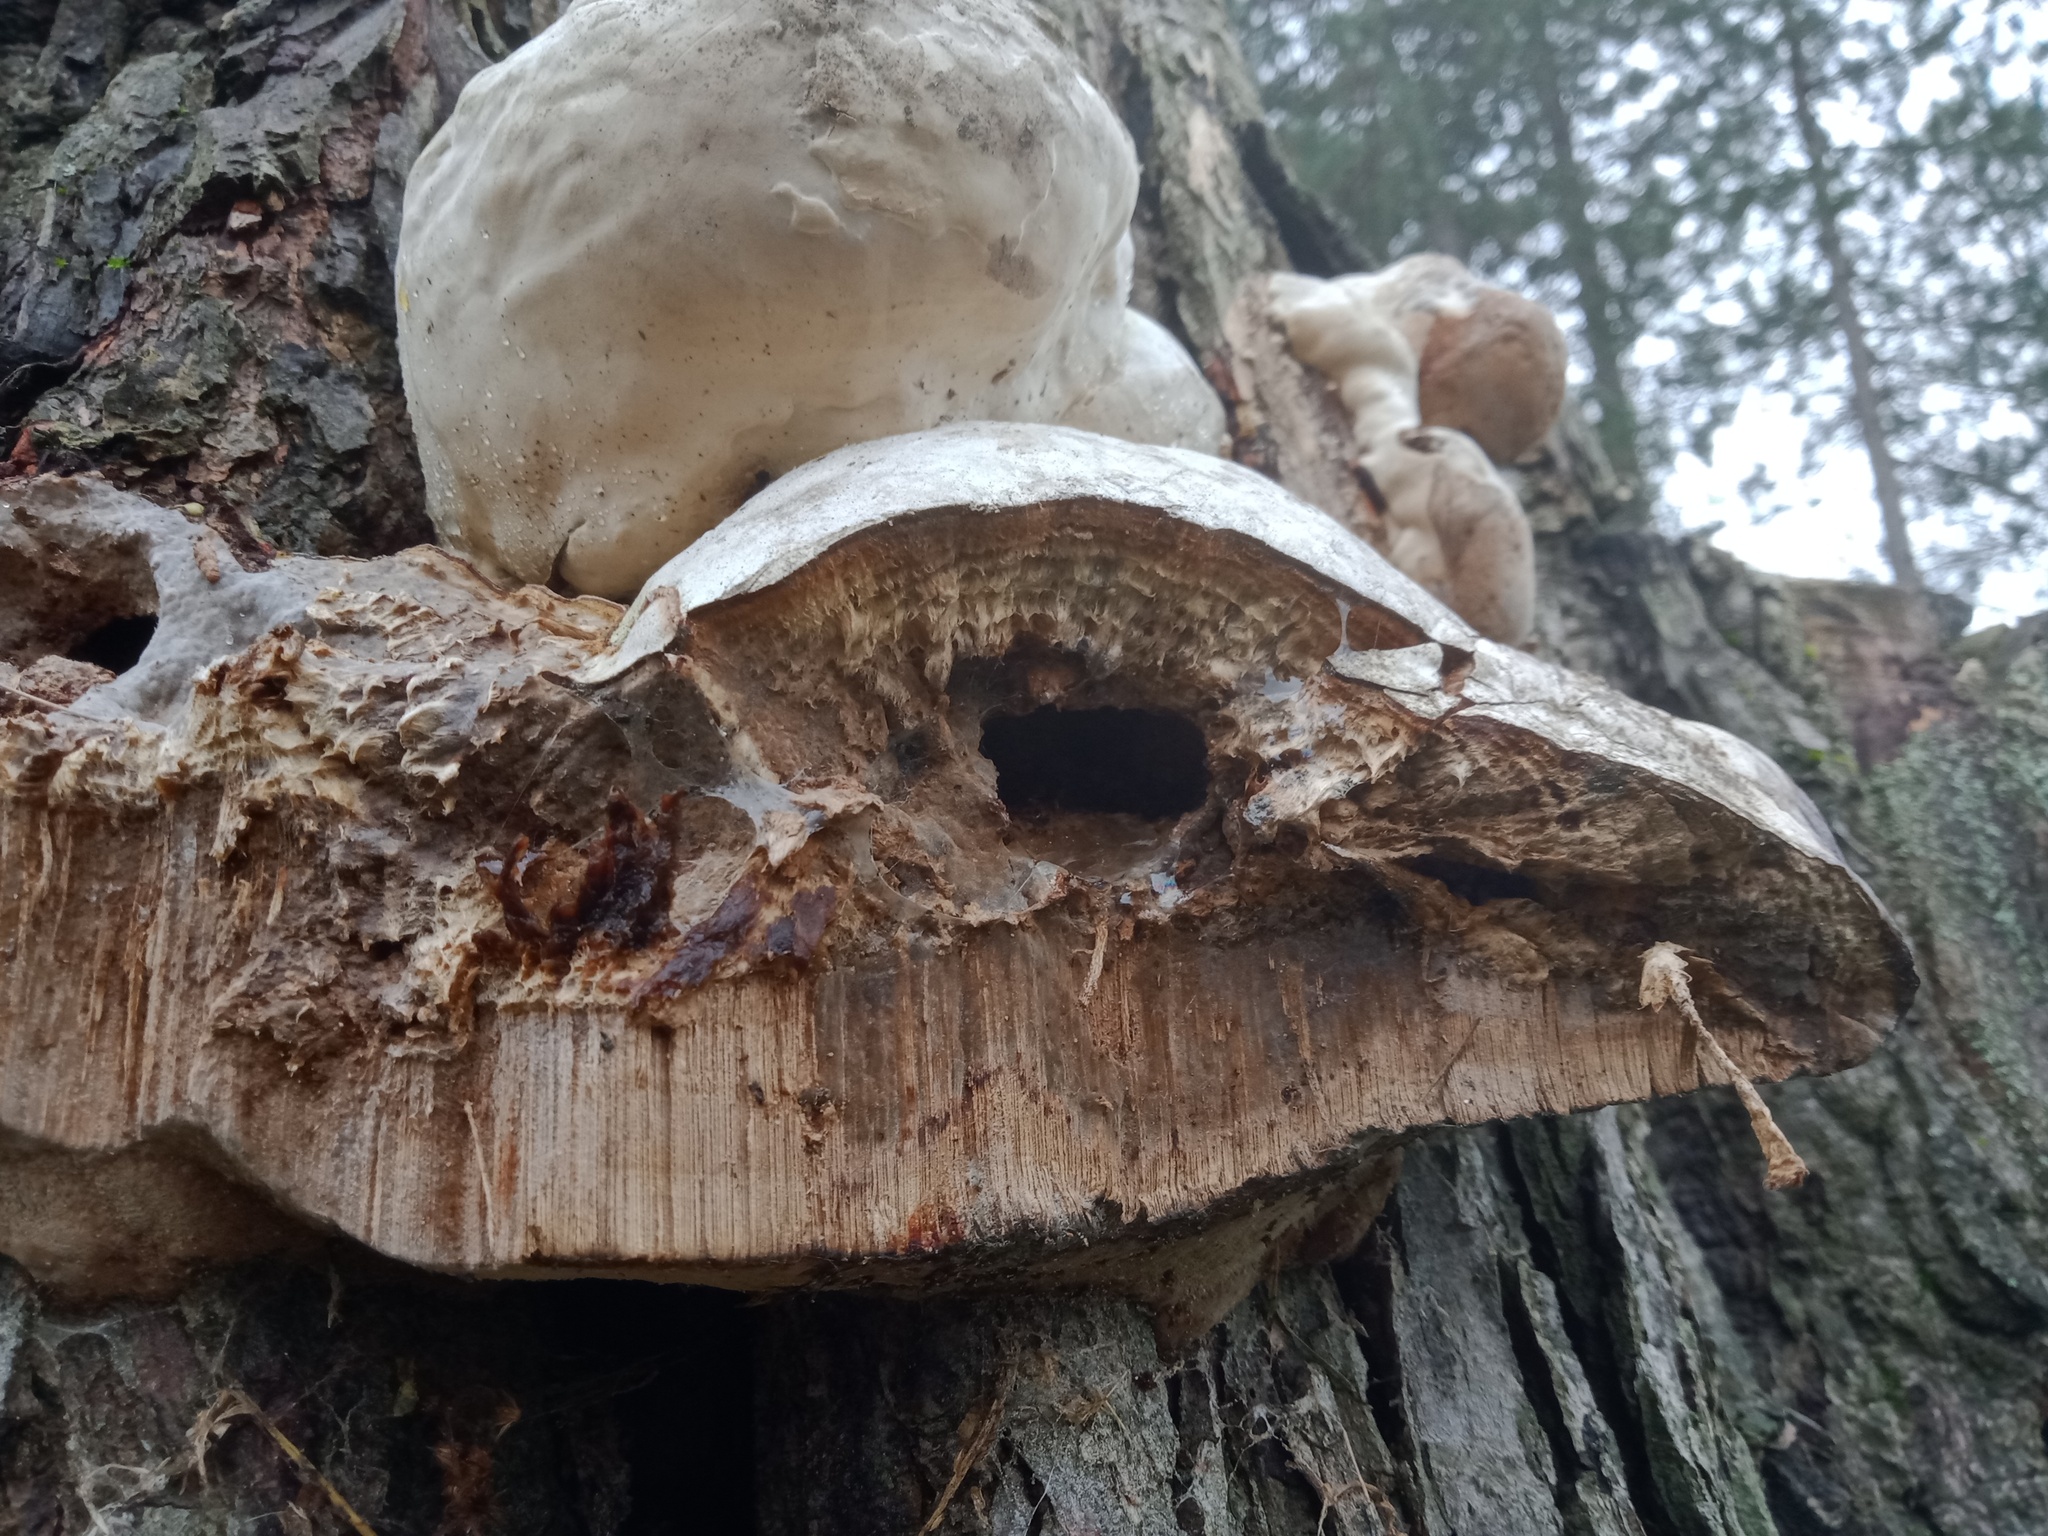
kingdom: Fungi
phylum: Basidiomycota
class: Agaricomycetes
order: Polyporales
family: Polyporaceae
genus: Fomes
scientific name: Fomes fomentarius
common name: Hoof fungus
